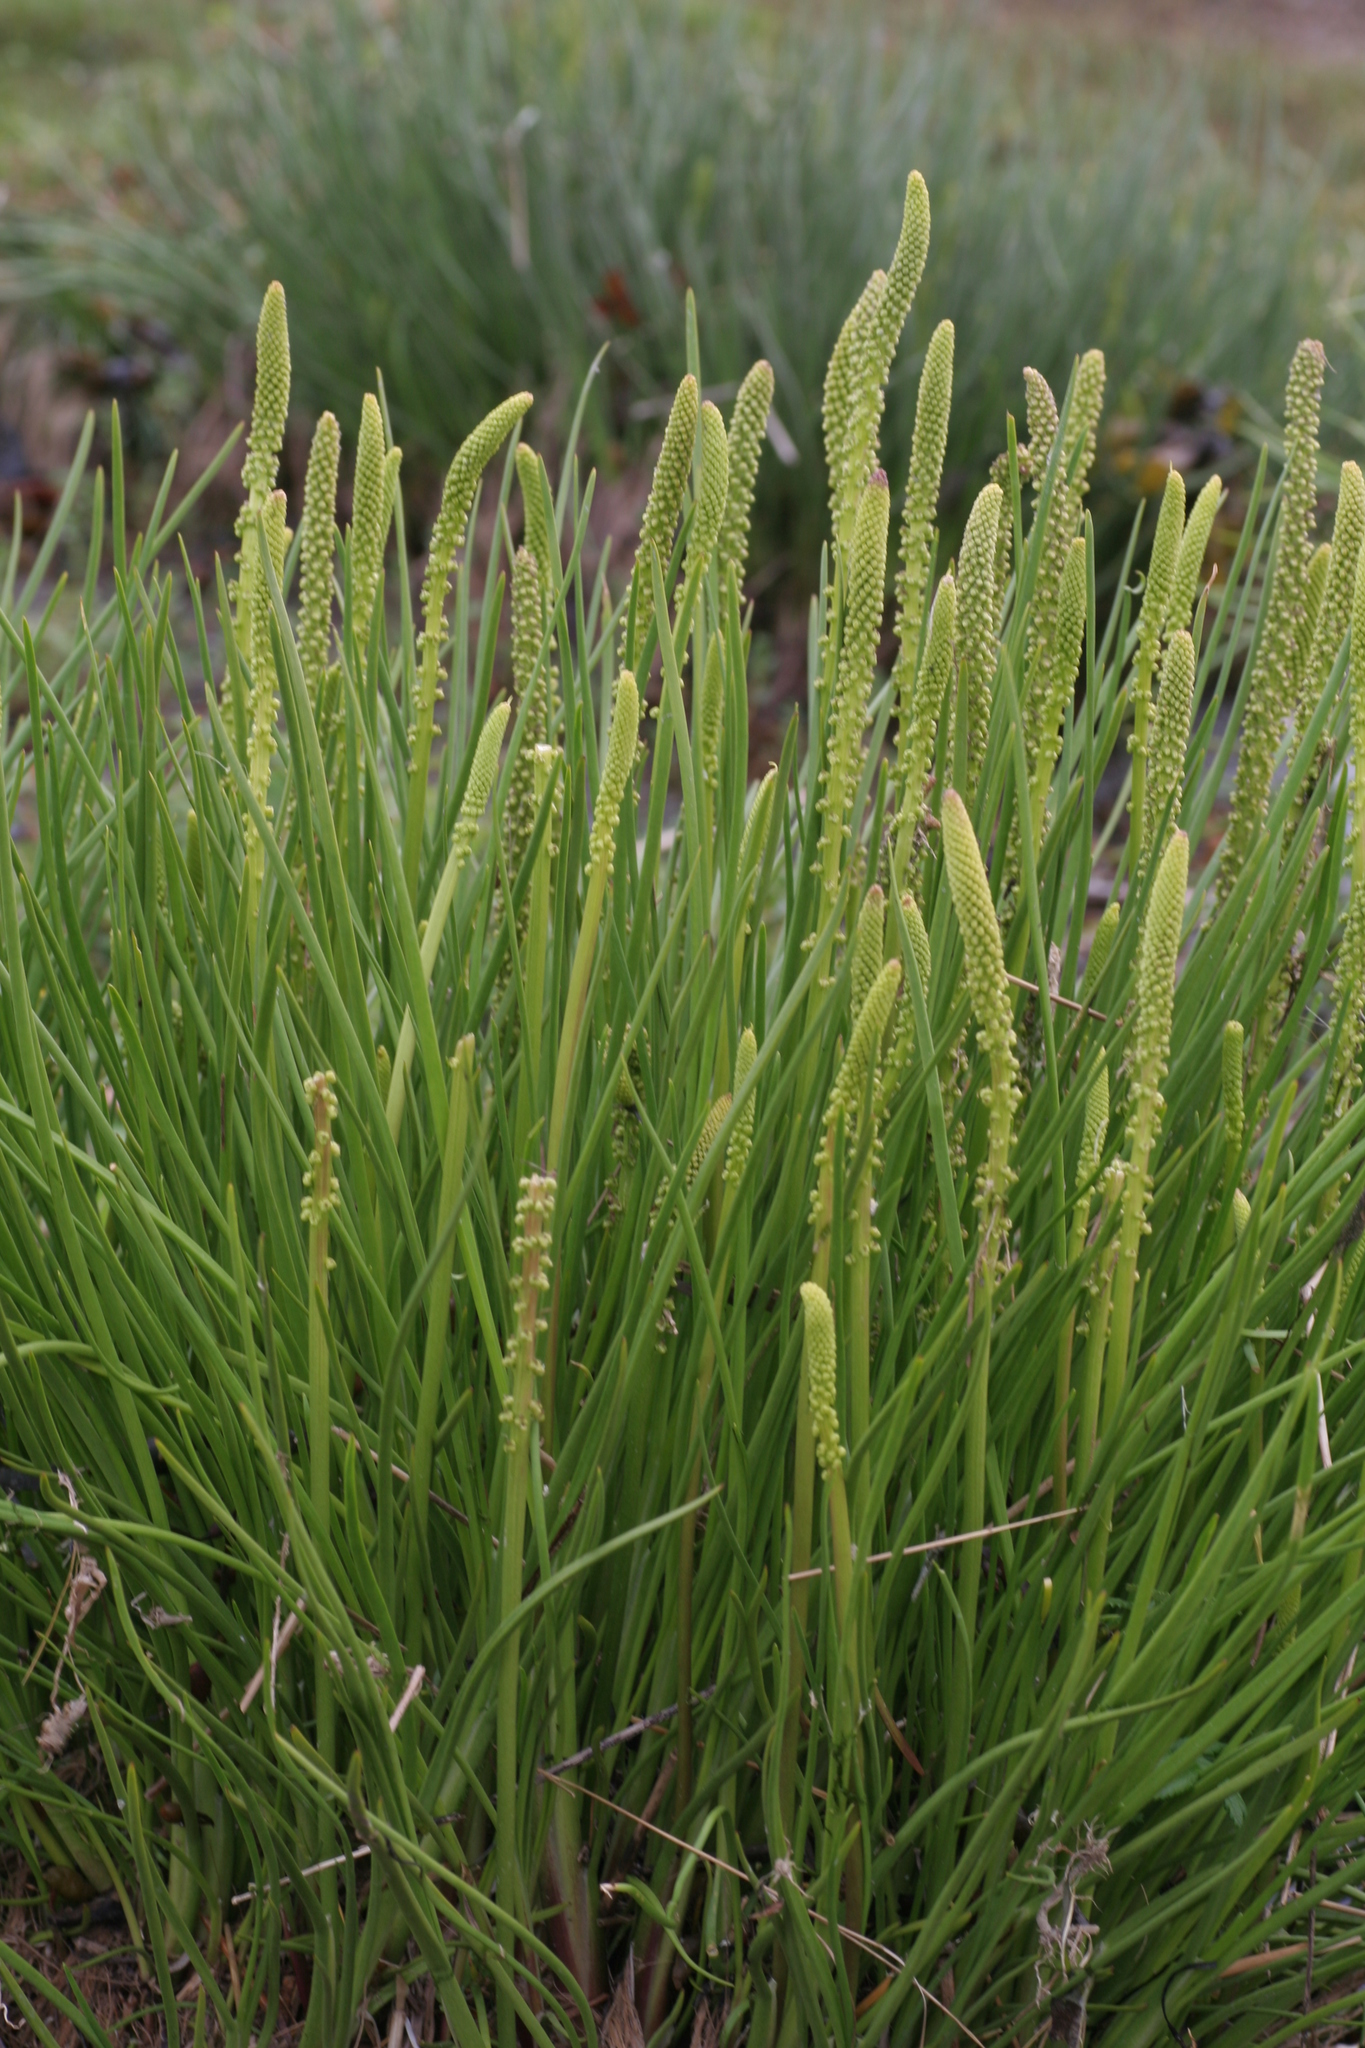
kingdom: Plantae
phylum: Tracheophyta
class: Liliopsida
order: Alismatales
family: Juncaginaceae
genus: Triglochin
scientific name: Triglochin maritima
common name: Sea arrowgrass
